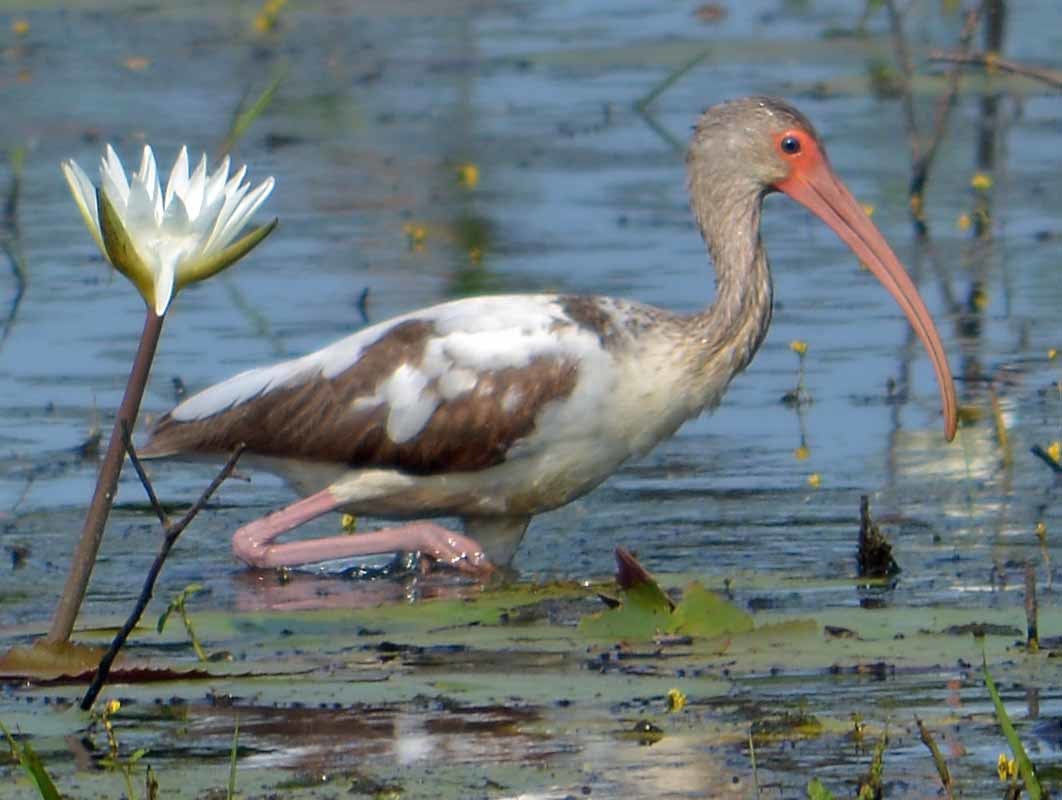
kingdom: Animalia
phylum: Chordata
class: Aves
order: Pelecaniformes
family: Threskiornithidae
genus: Eudocimus
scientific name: Eudocimus albus
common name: White ibis
